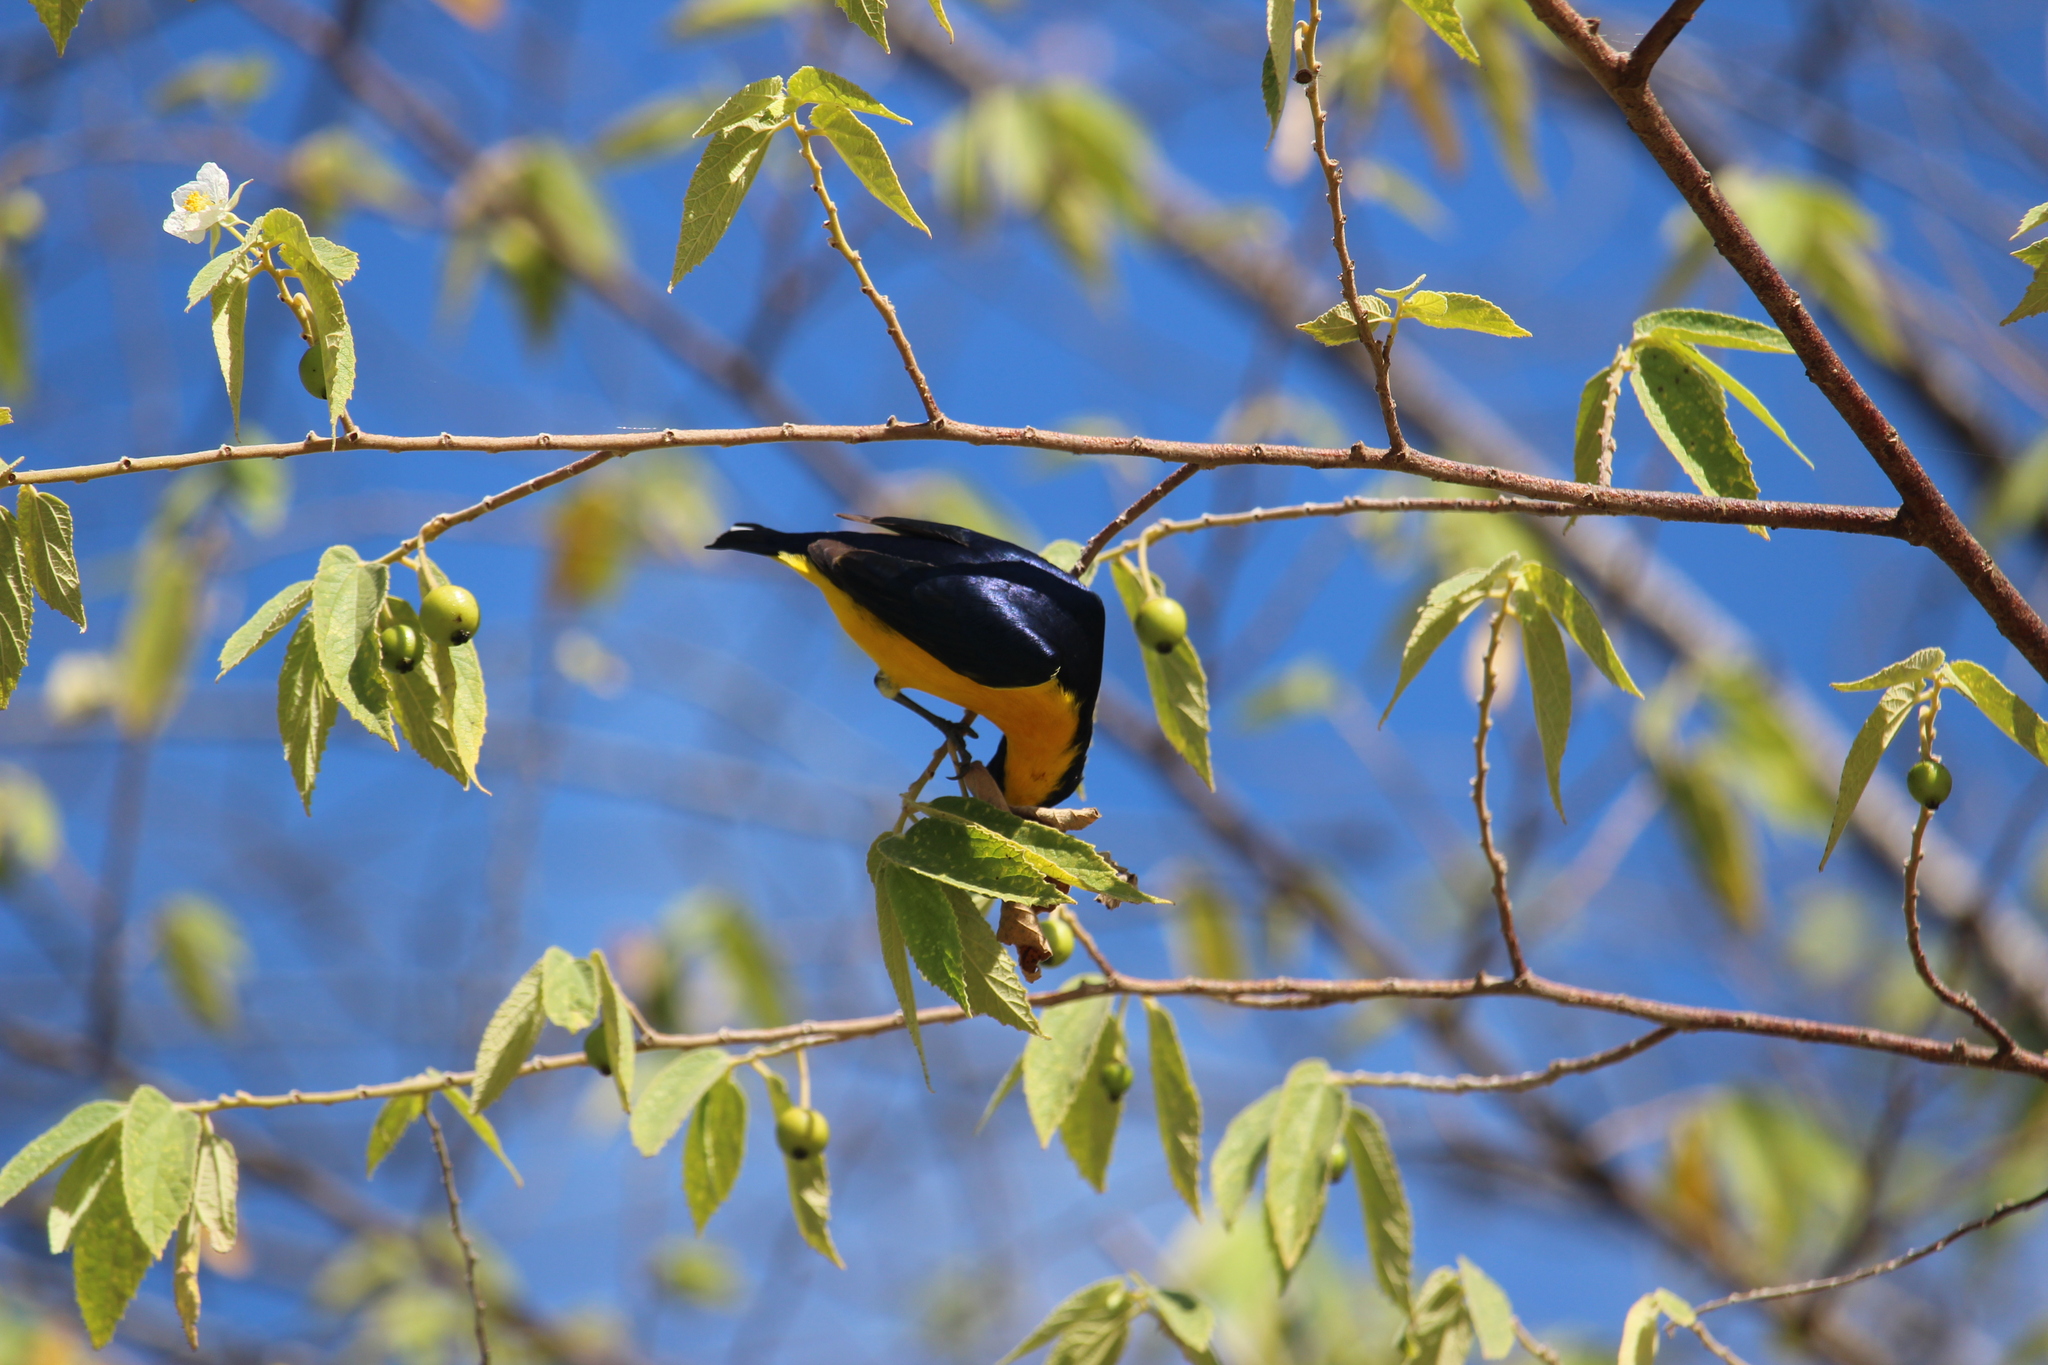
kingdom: Animalia
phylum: Chordata
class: Aves
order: Passeriformes
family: Fringillidae
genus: Euphonia
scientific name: Euphonia hirundinacea
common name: Yellow-throated euphonia
